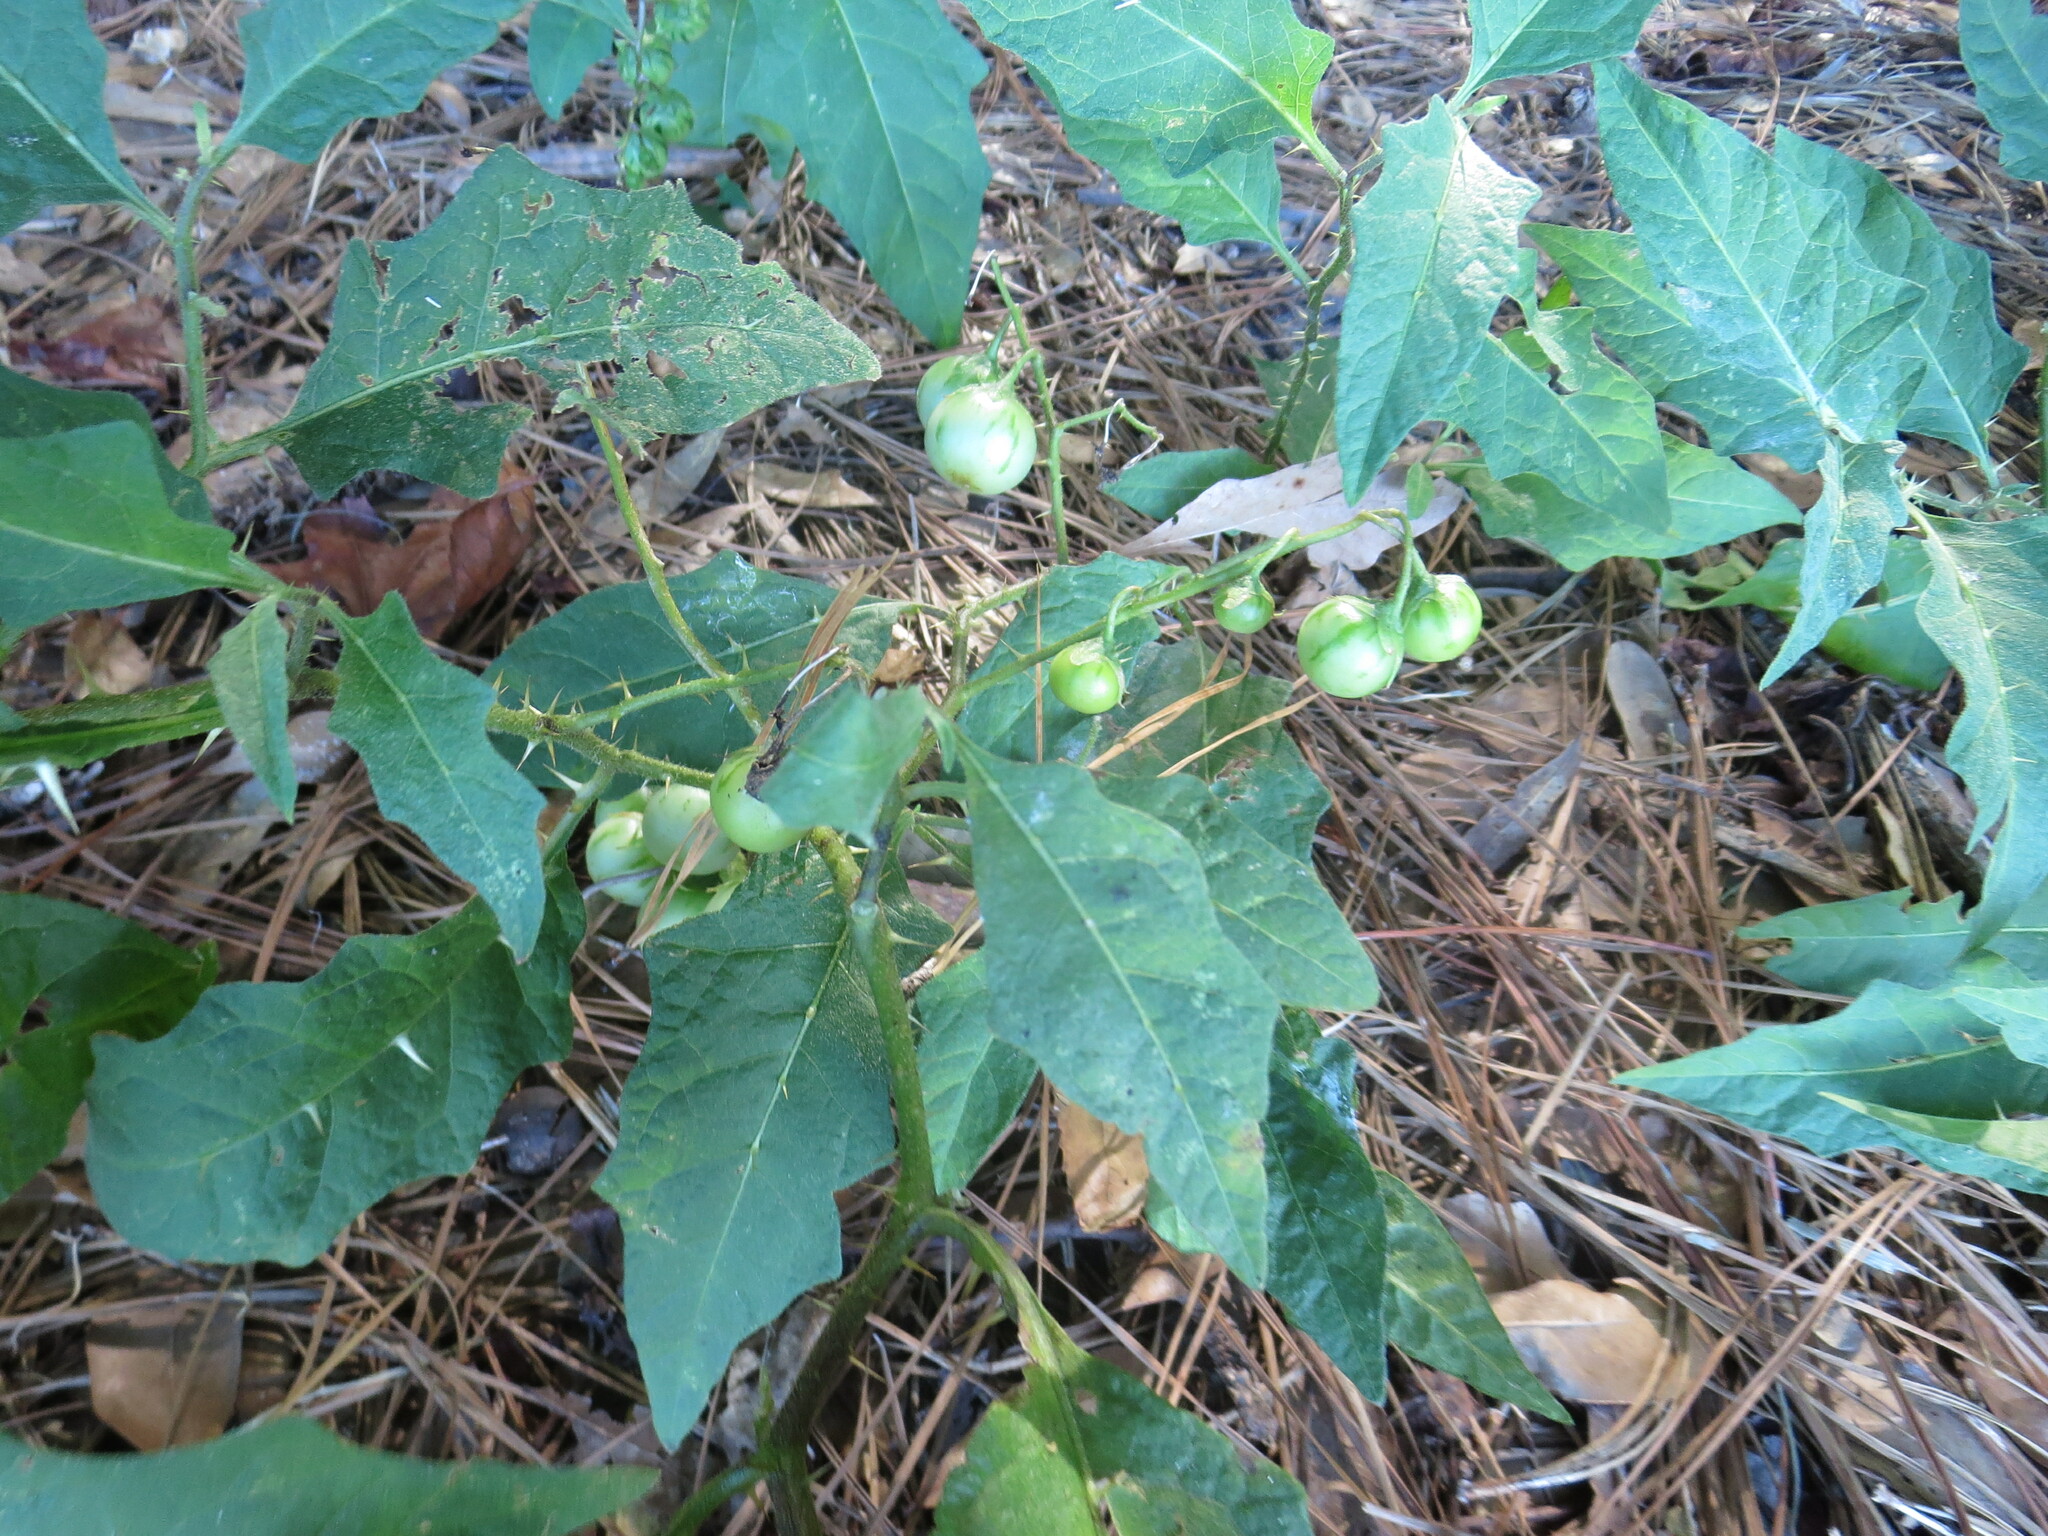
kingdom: Plantae
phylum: Tracheophyta
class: Magnoliopsida
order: Solanales
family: Solanaceae
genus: Solanum
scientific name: Solanum carolinense
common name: Horse-nettle
